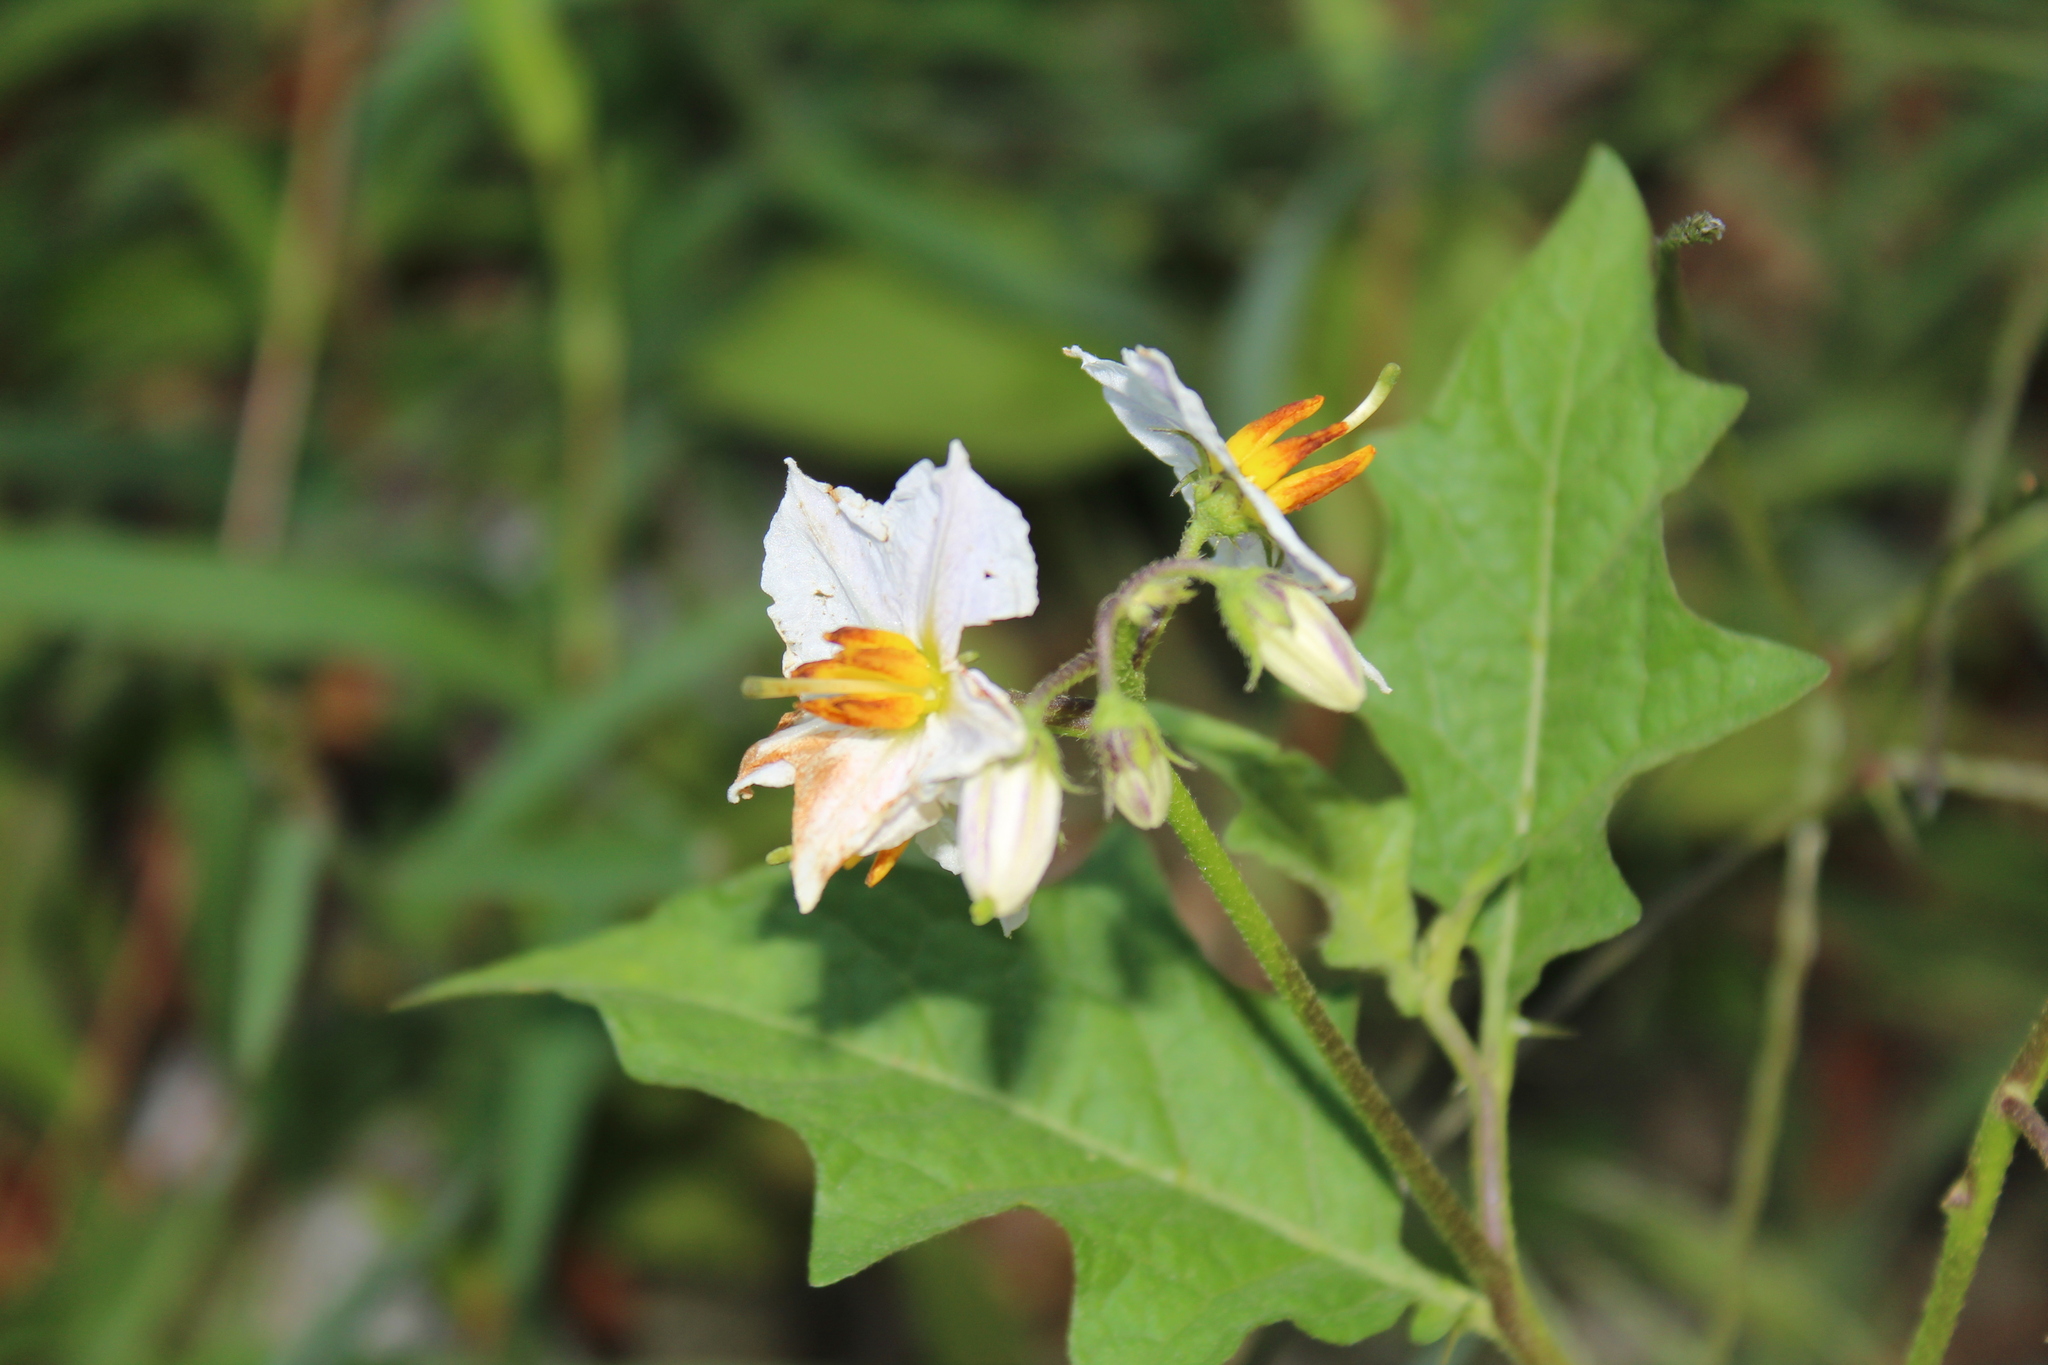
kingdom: Plantae
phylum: Tracheophyta
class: Magnoliopsida
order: Solanales
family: Solanaceae
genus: Solanum
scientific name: Solanum carolinense
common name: Horse-nettle
